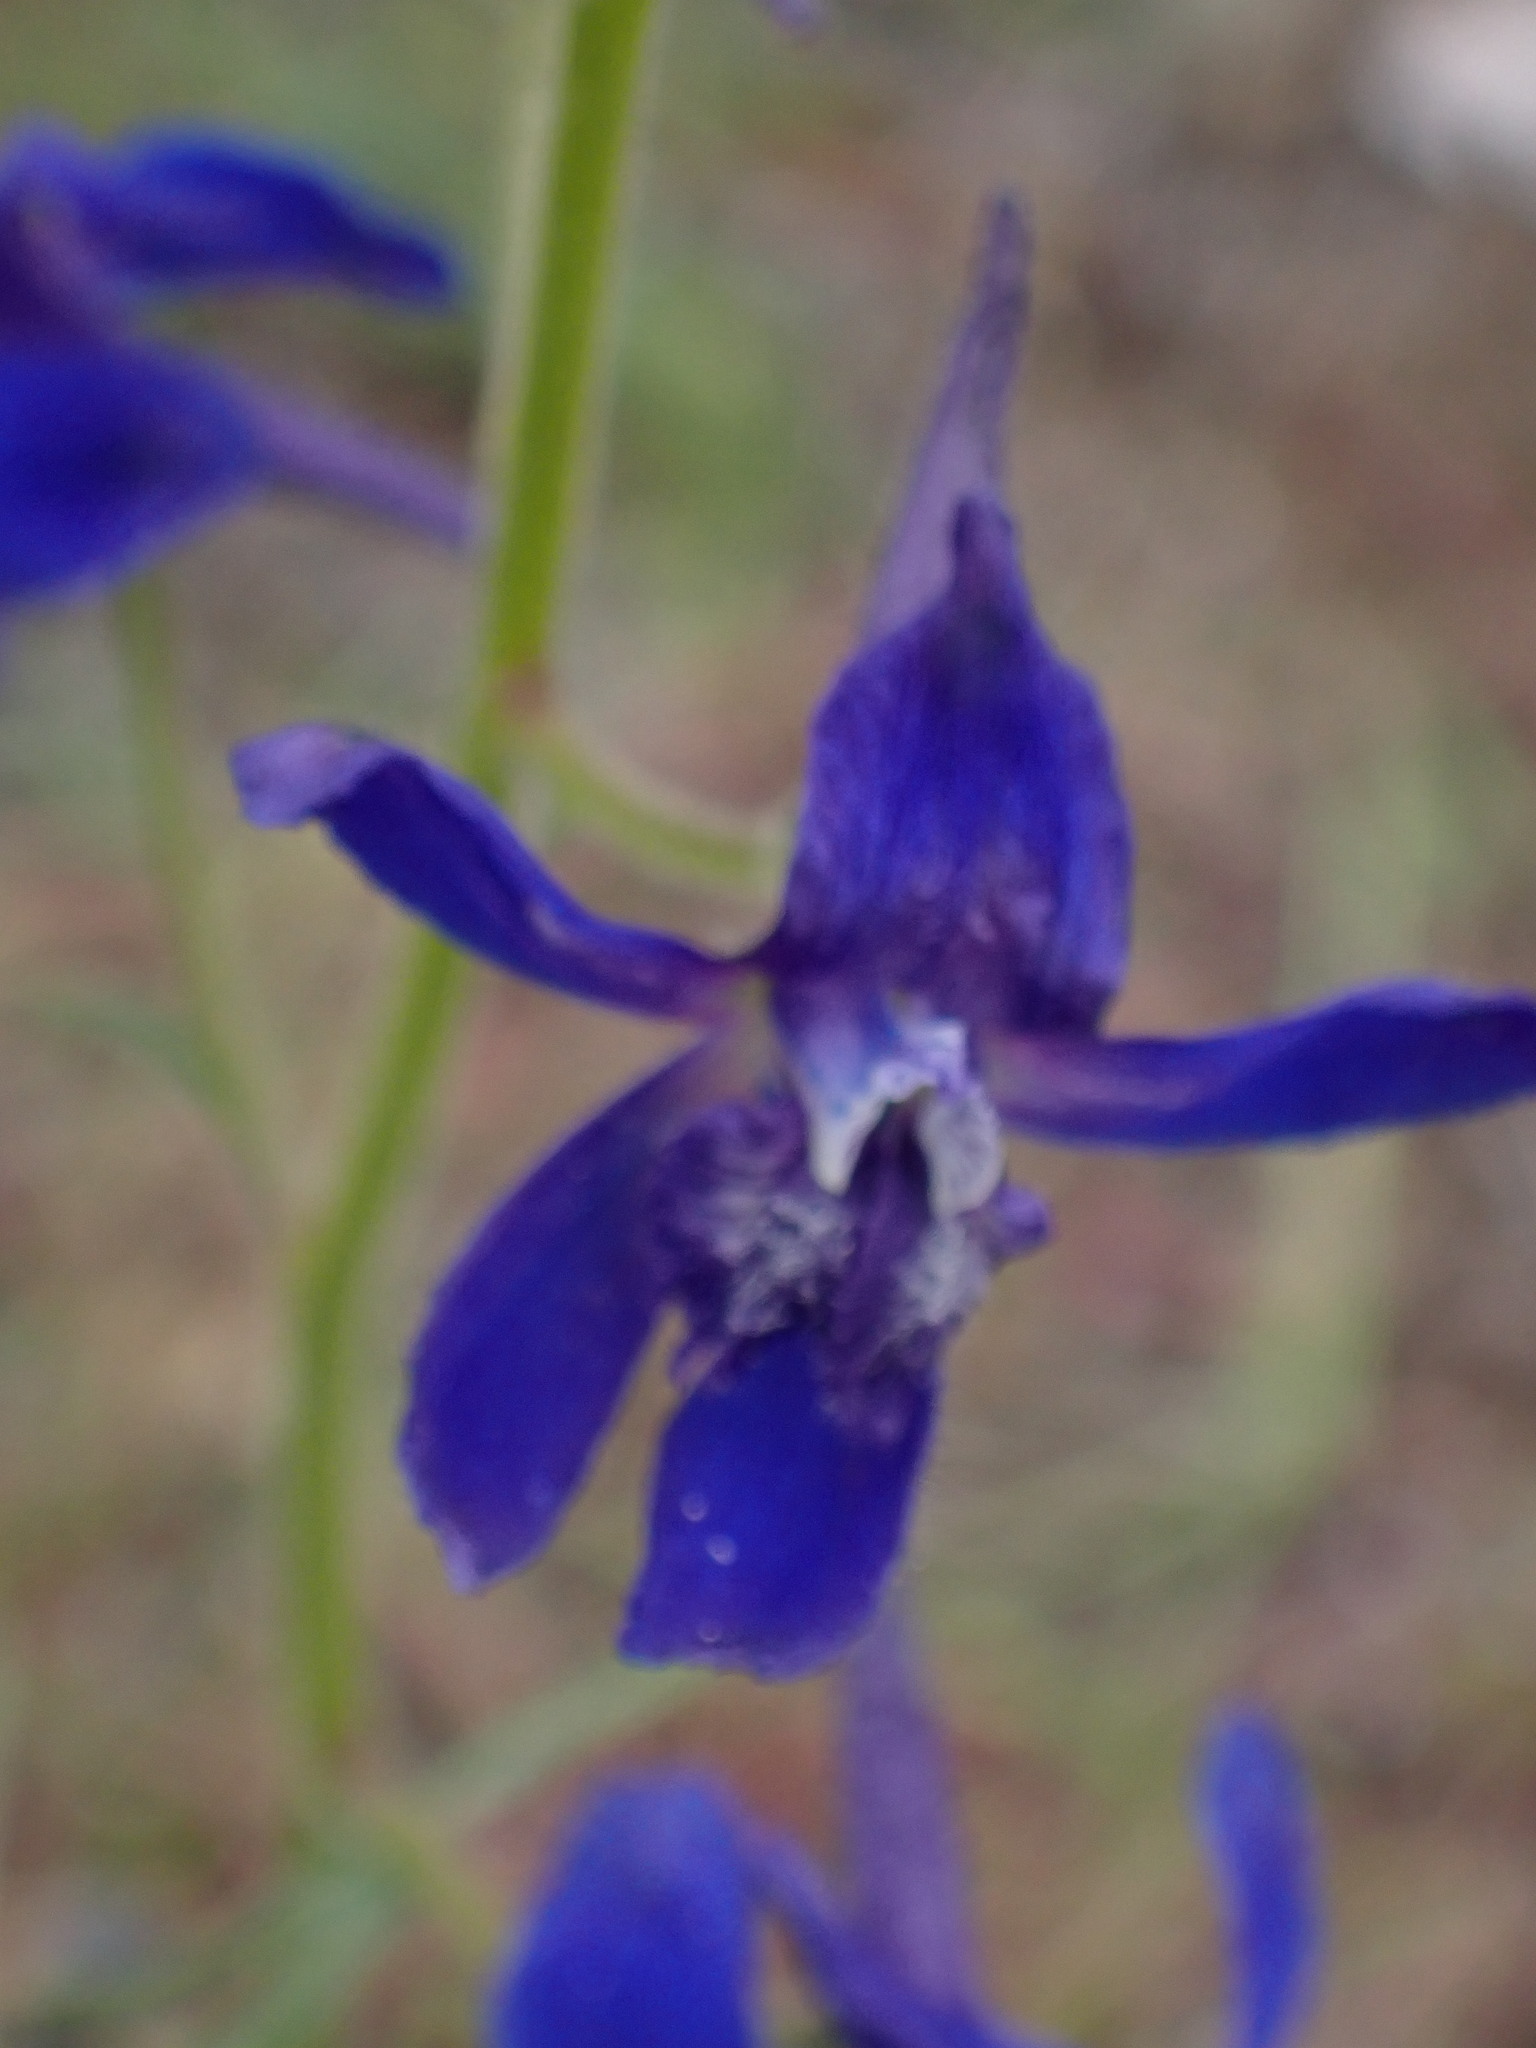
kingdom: Plantae
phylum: Tracheophyta
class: Magnoliopsida
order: Ranunculales
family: Ranunculaceae
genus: Delphinium
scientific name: Delphinium nuttallianum
